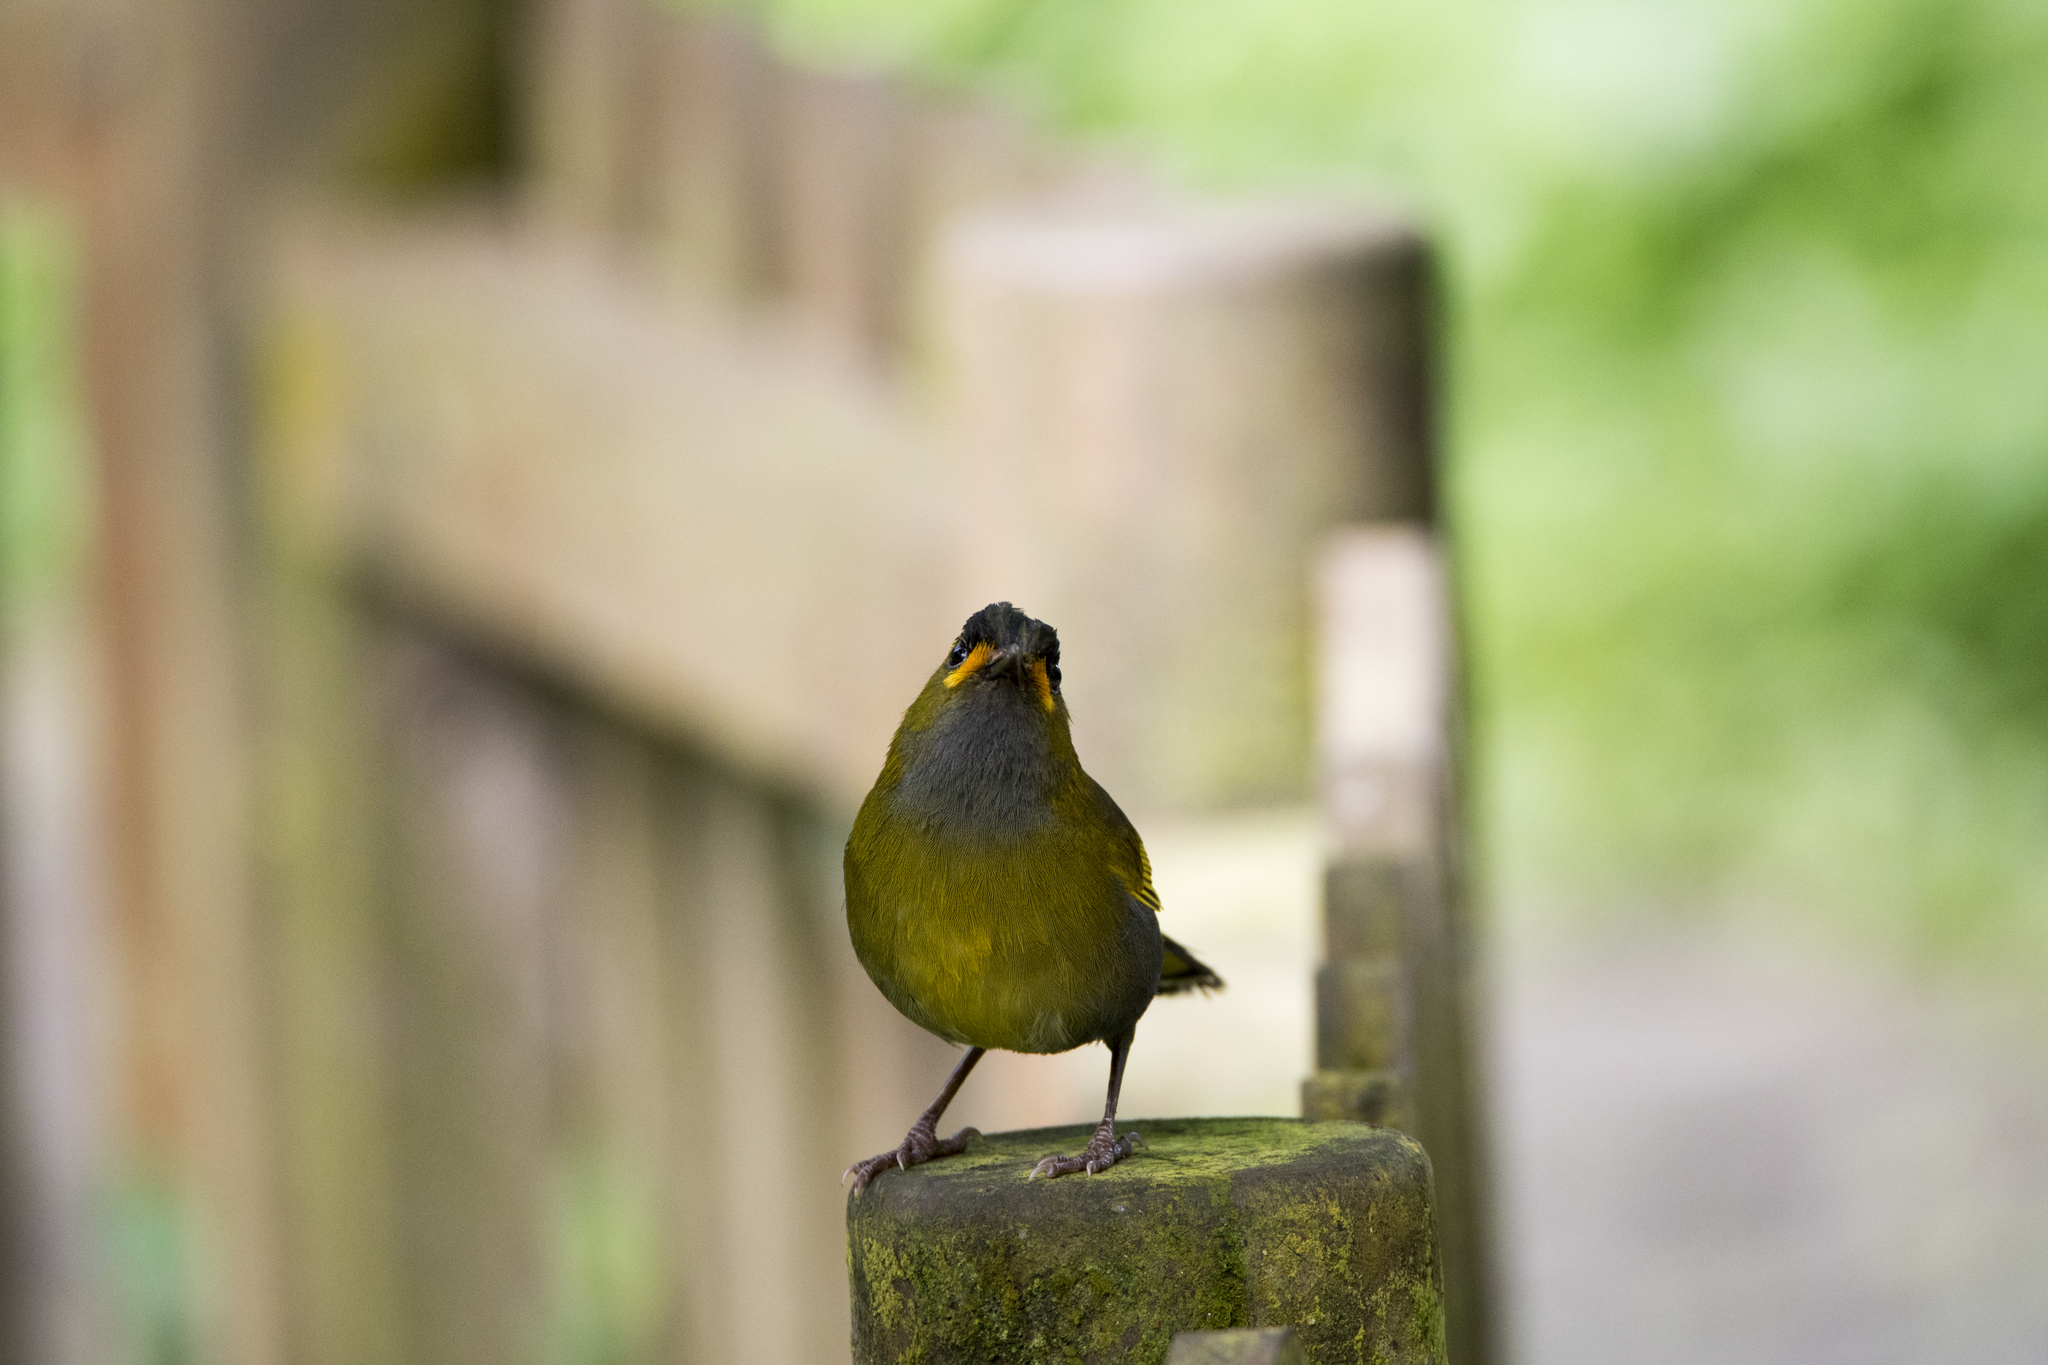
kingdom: Animalia
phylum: Chordata
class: Aves
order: Passeriformes
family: Leiothrichidae
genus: Liocichla
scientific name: Liocichla steerii
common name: Steere's liocichla
